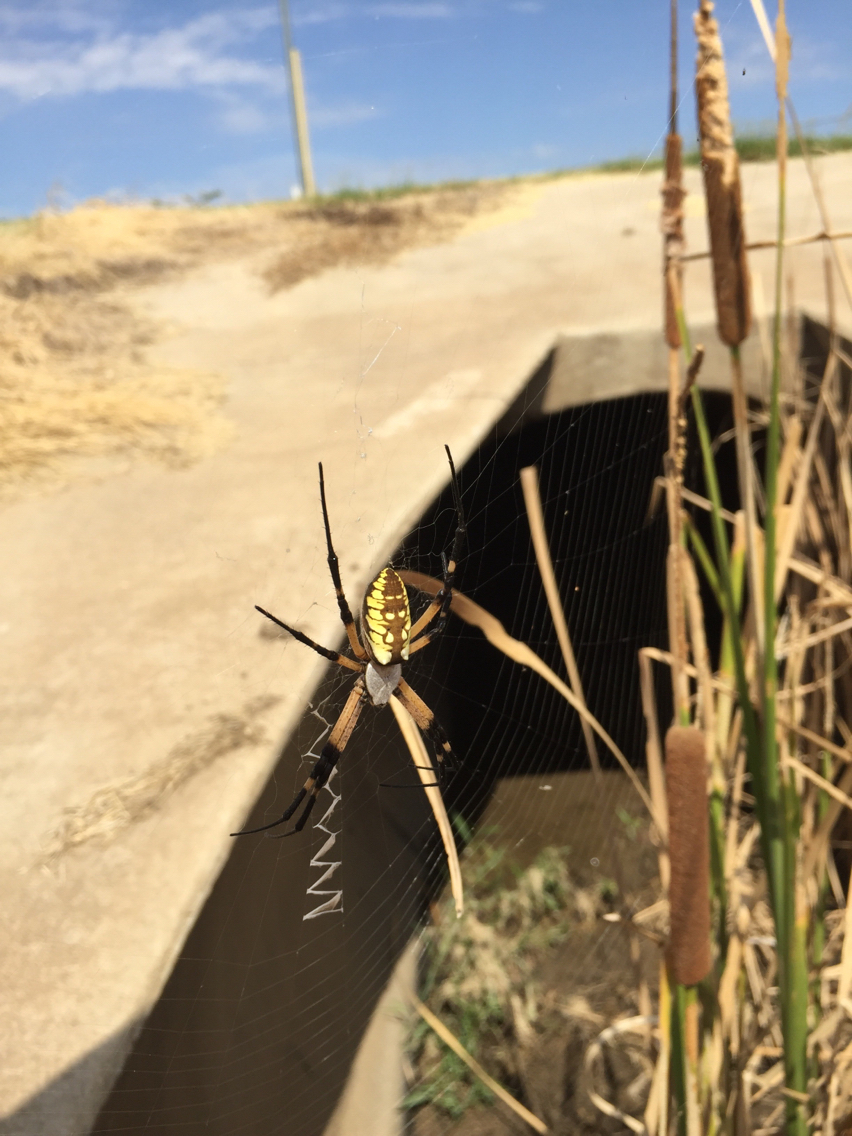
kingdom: Animalia
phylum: Arthropoda
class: Arachnida
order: Araneae
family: Araneidae
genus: Argiope
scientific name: Argiope aurantia
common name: Orb weavers
